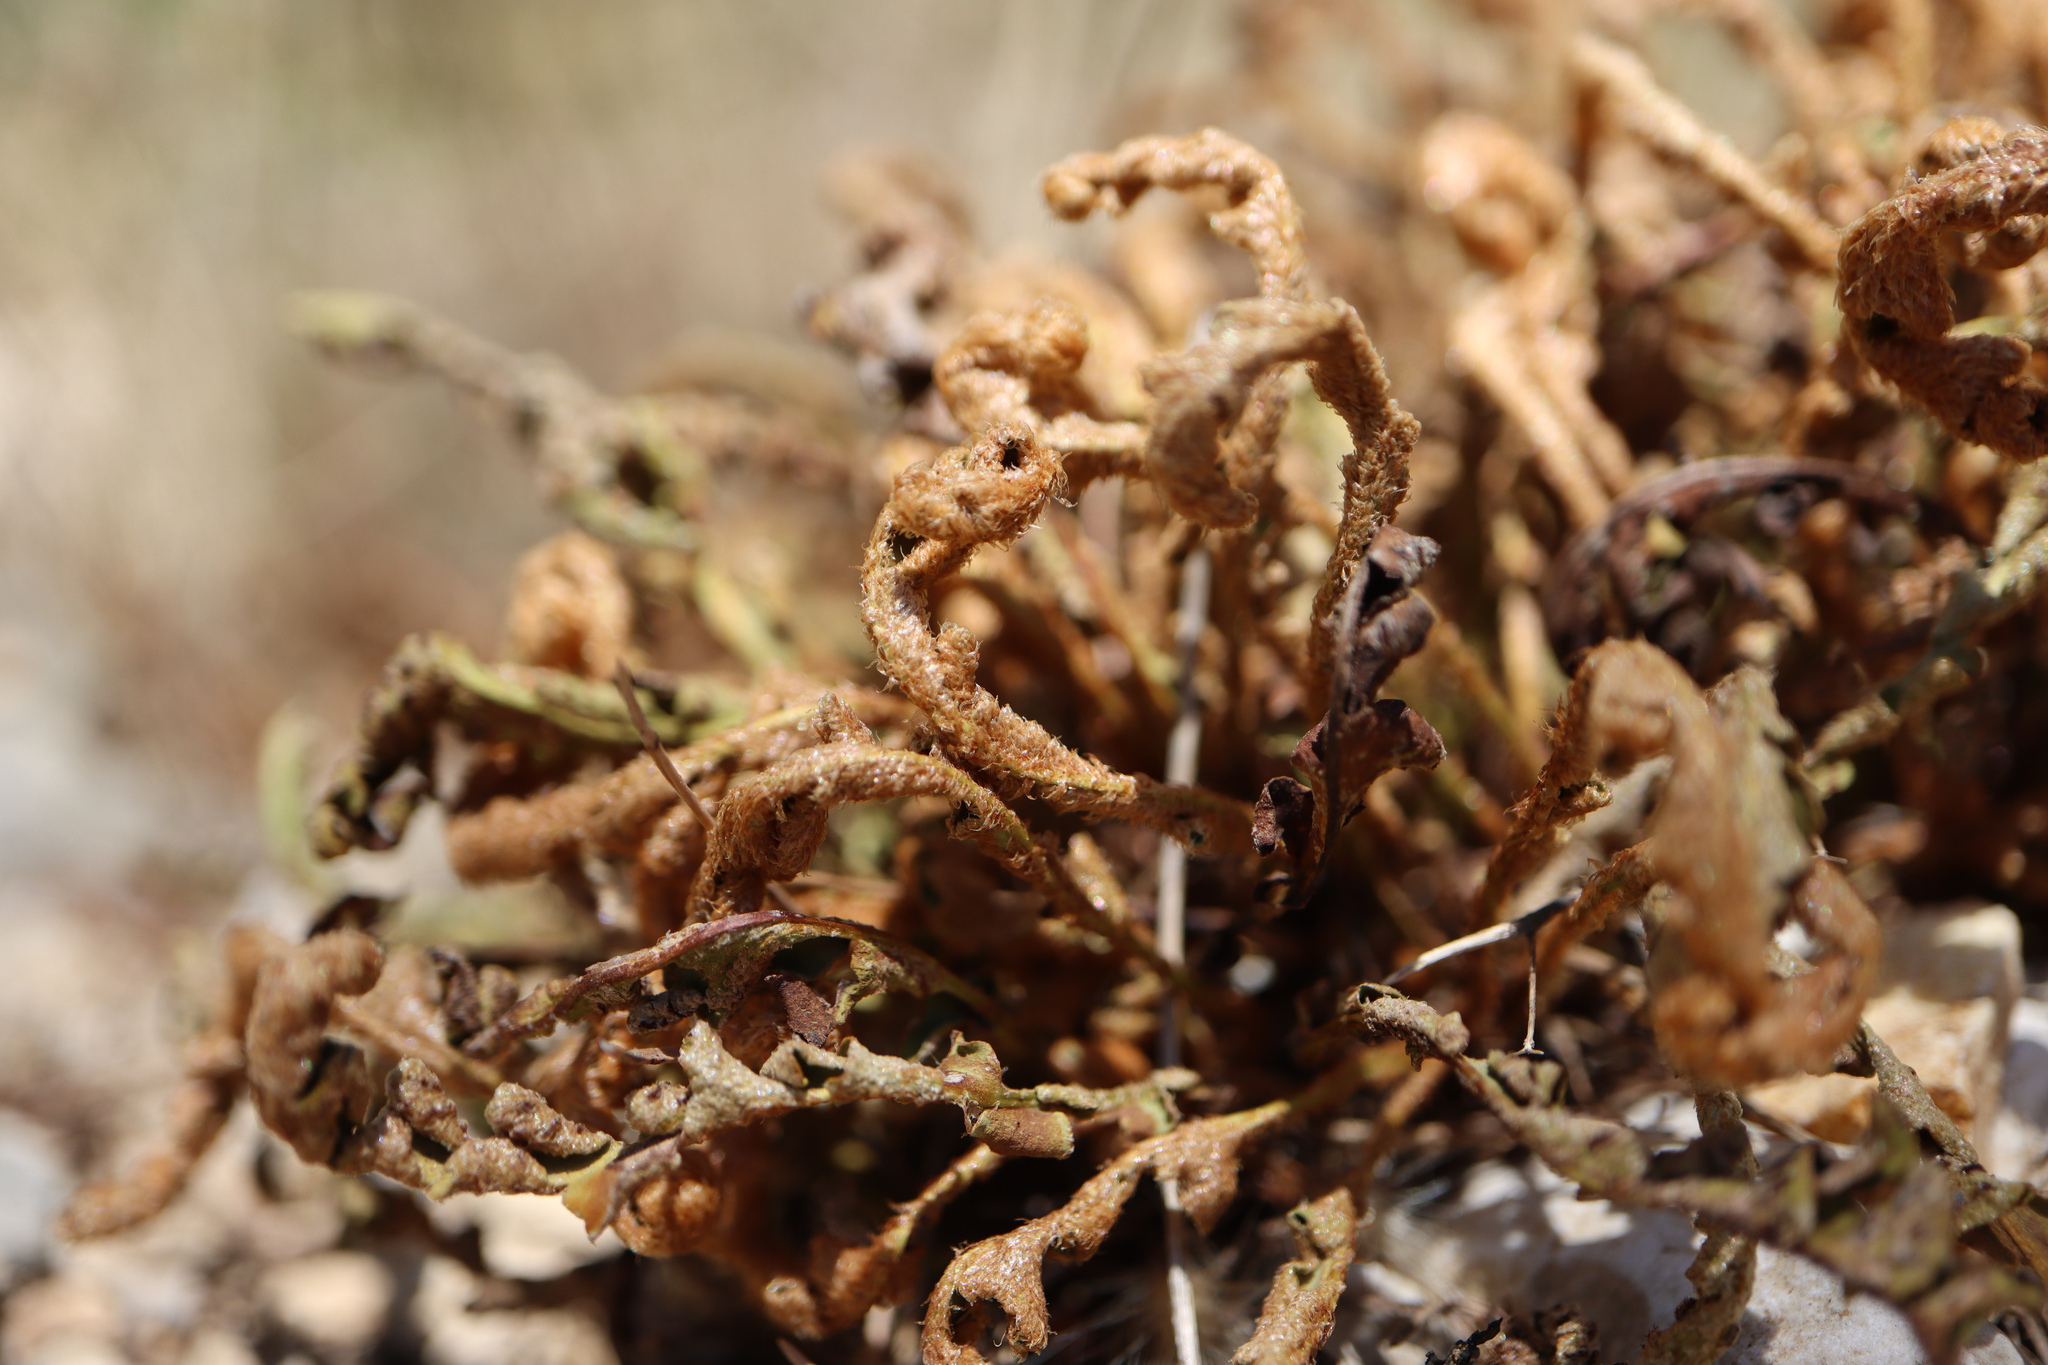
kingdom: Plantae
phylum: Tracheophyta
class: Polypodiopsida
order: Polypodiales
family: Aspleniaceae
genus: Asplenium
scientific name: Asplenium ceterach
